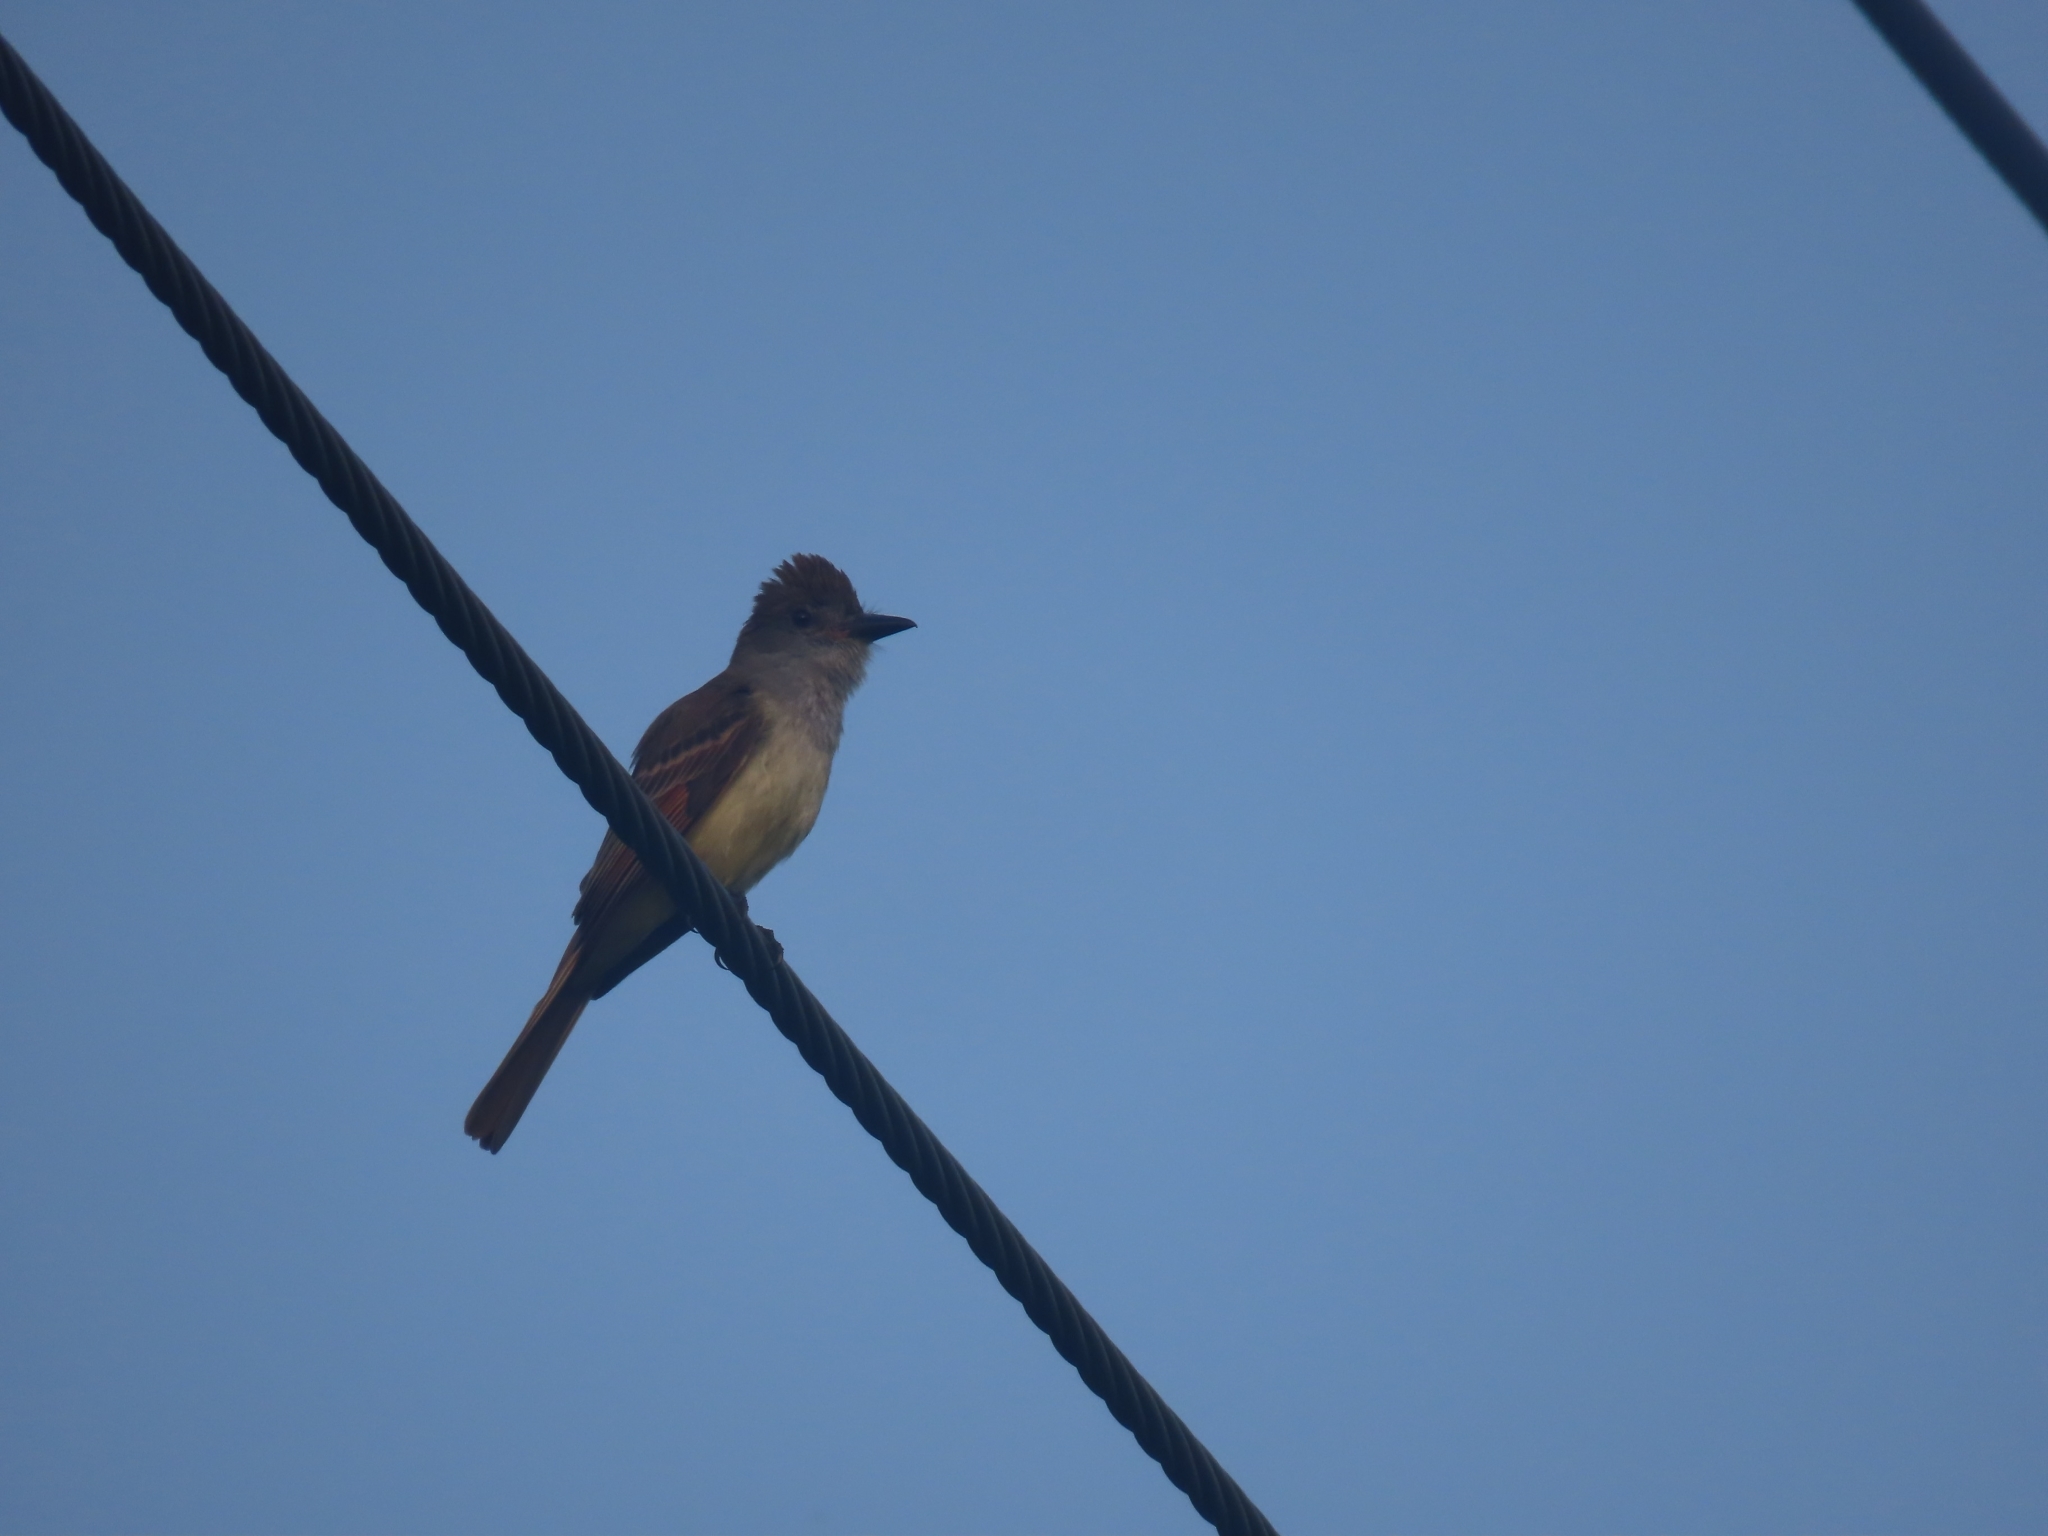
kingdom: Animalia
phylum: Chordata
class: Aves
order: Passeriformes
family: Tyrannidae
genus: Myiarchus
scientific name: Myiarchus tyrannulus
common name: Brown-crested flycatcher
